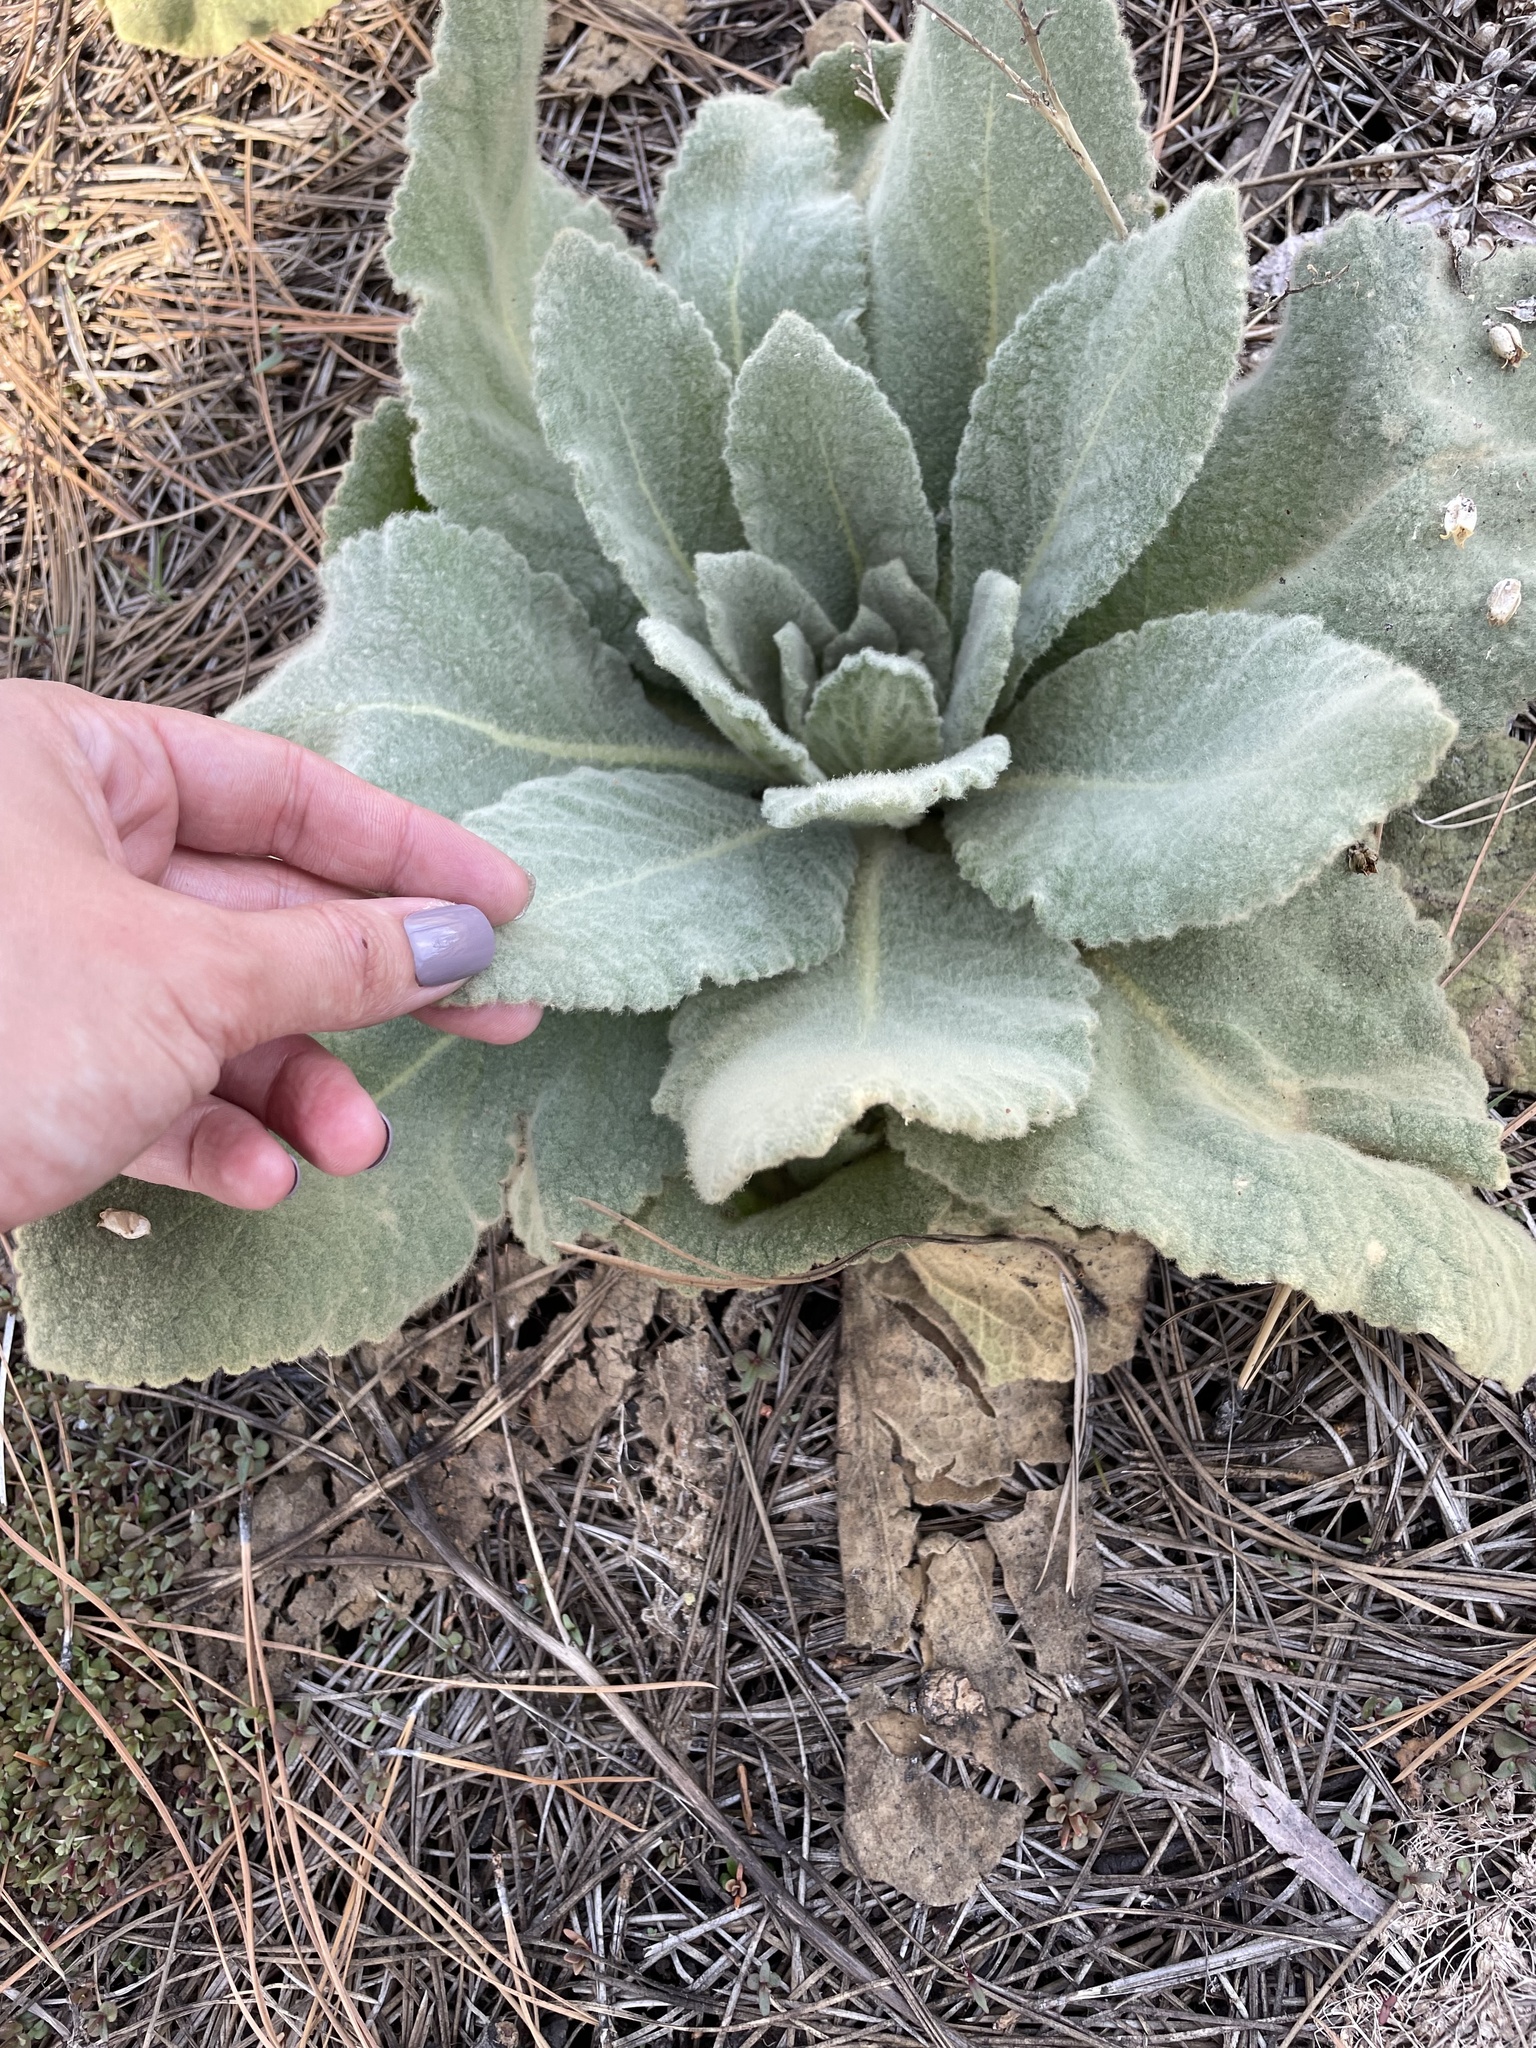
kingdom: Plantae
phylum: Tracheophyta
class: Magnoliopsida
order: Lamiales
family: Scrophulariaceae
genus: Verbascum
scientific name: Verbascum thapsus
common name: Common mullein
